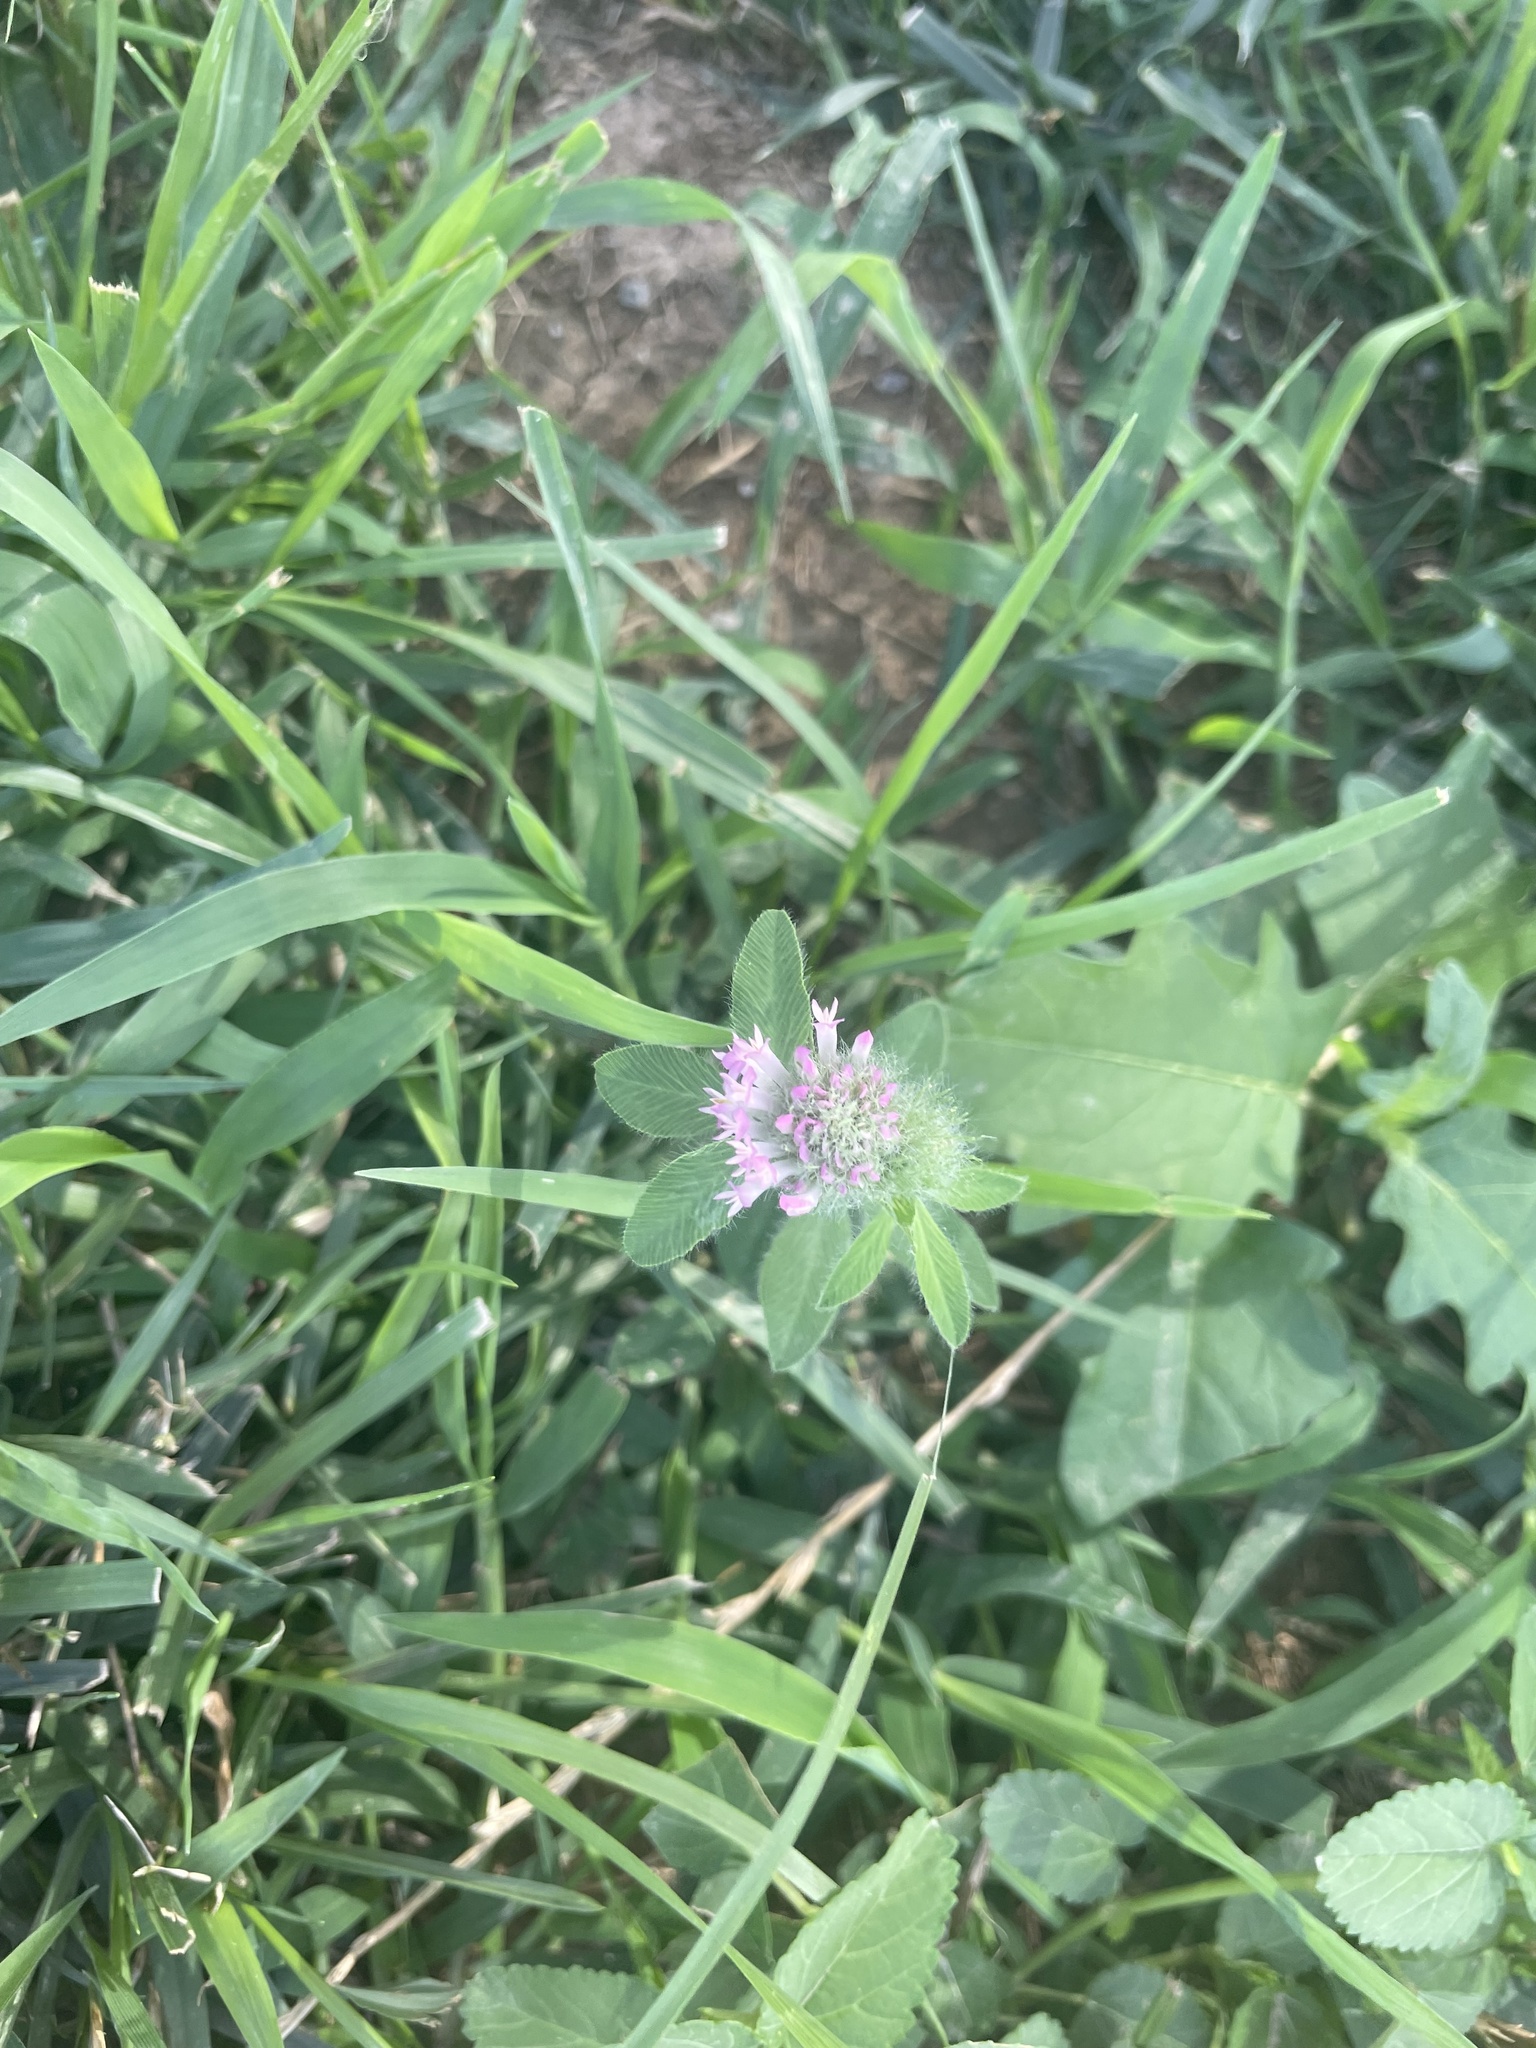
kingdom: Plantae
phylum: Tracheophyta
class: Magnoliopsida
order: Fabales
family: Fabaceae
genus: Trifolium
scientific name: Trifolium pratense
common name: Red clover
